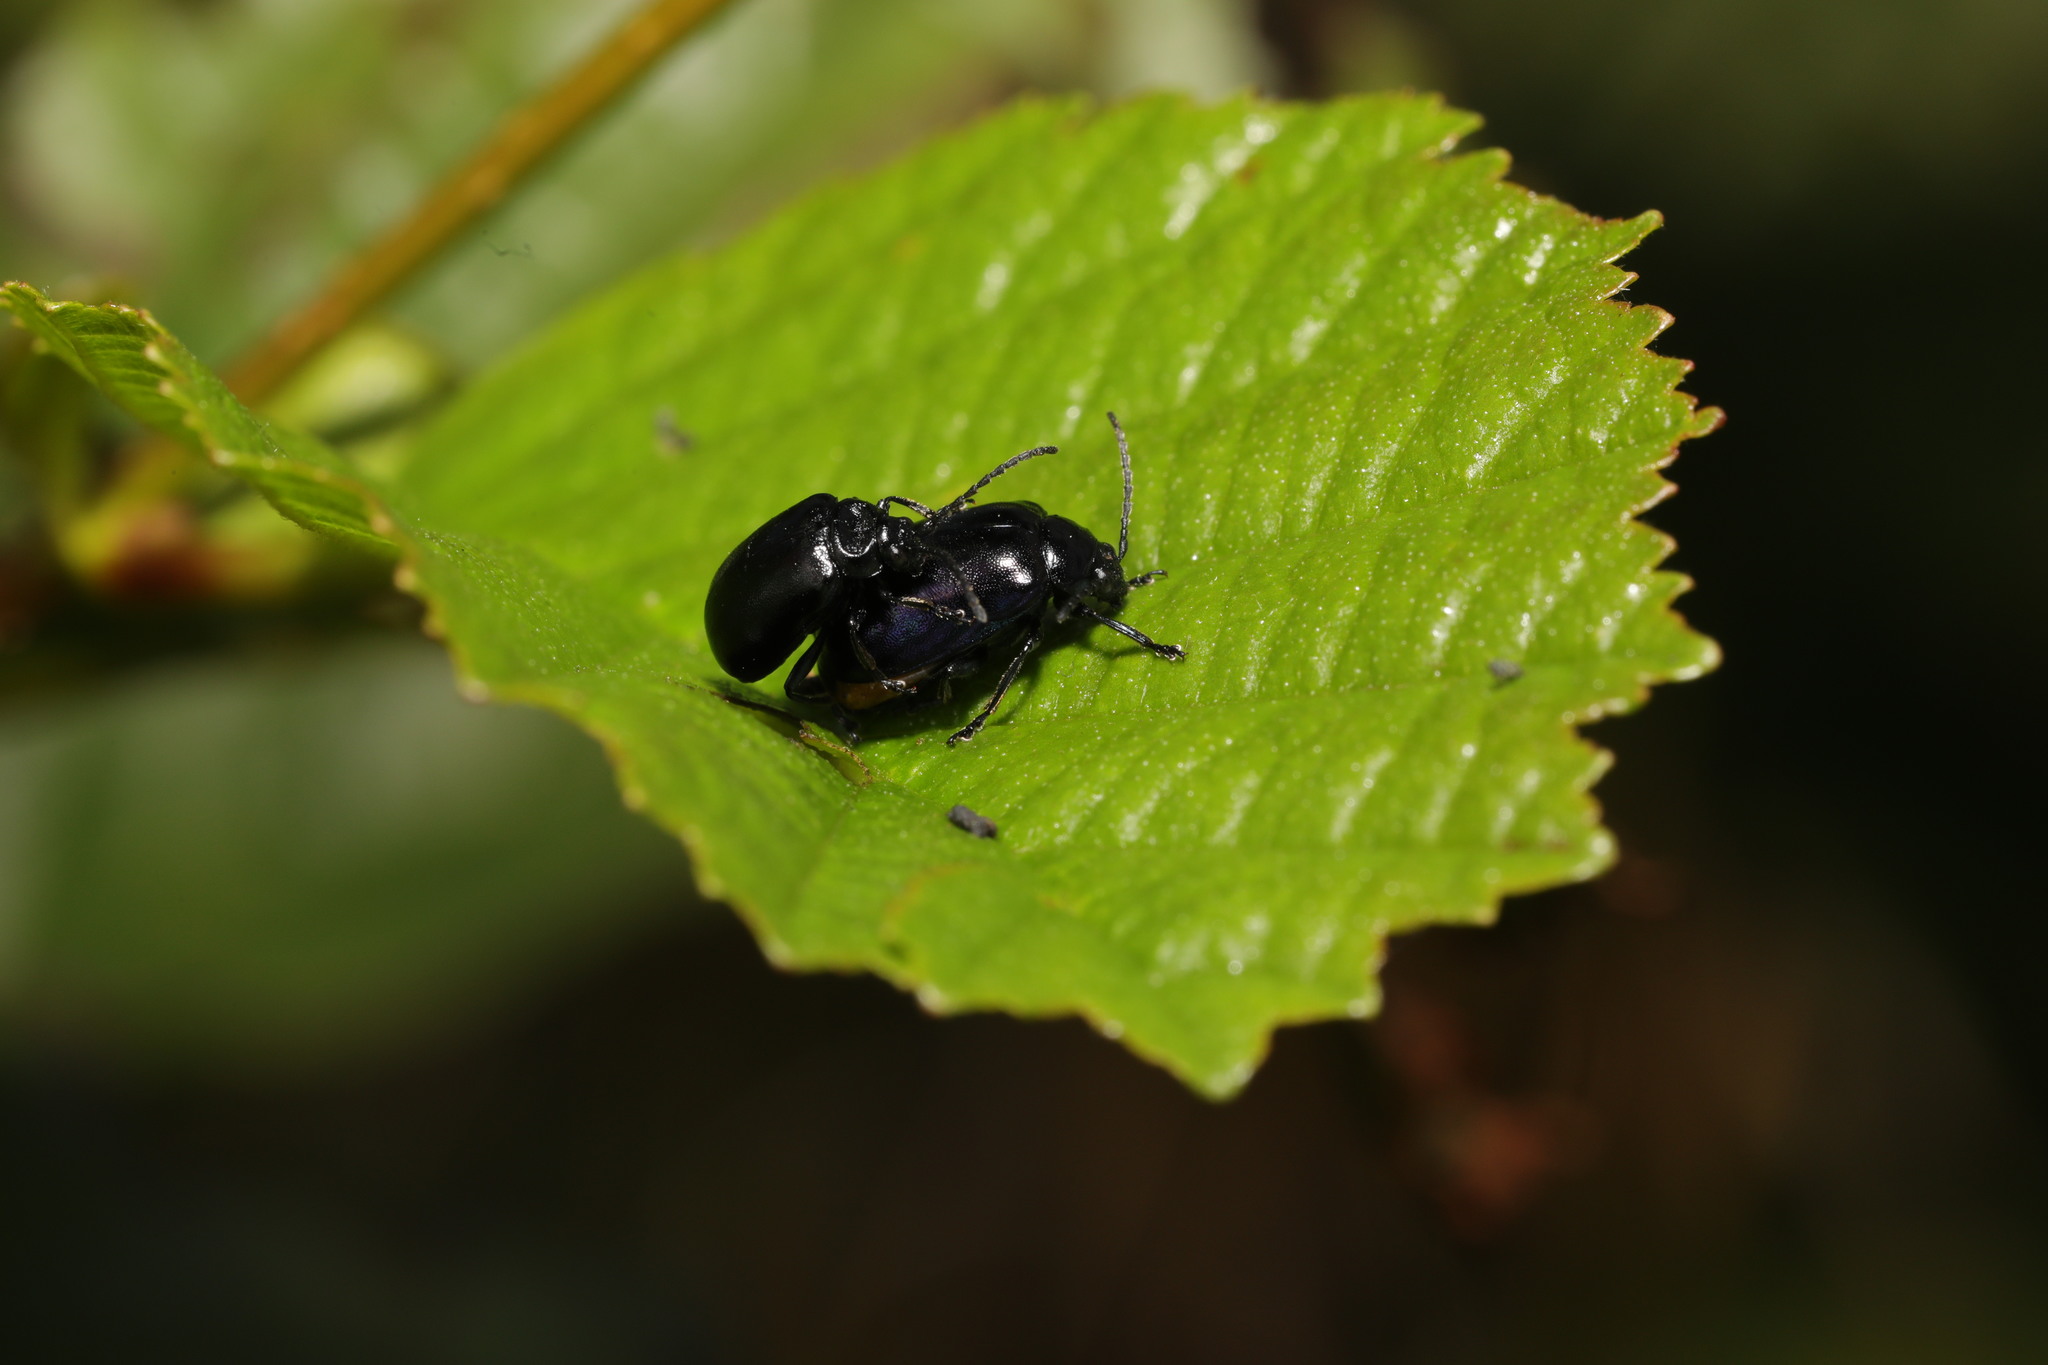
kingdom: Animalia
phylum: Arthropoda
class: Insecta
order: Coleoptera
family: Chrysomelidae
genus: Agelastica
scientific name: Agelastica alni
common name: Alder leaf beetle
